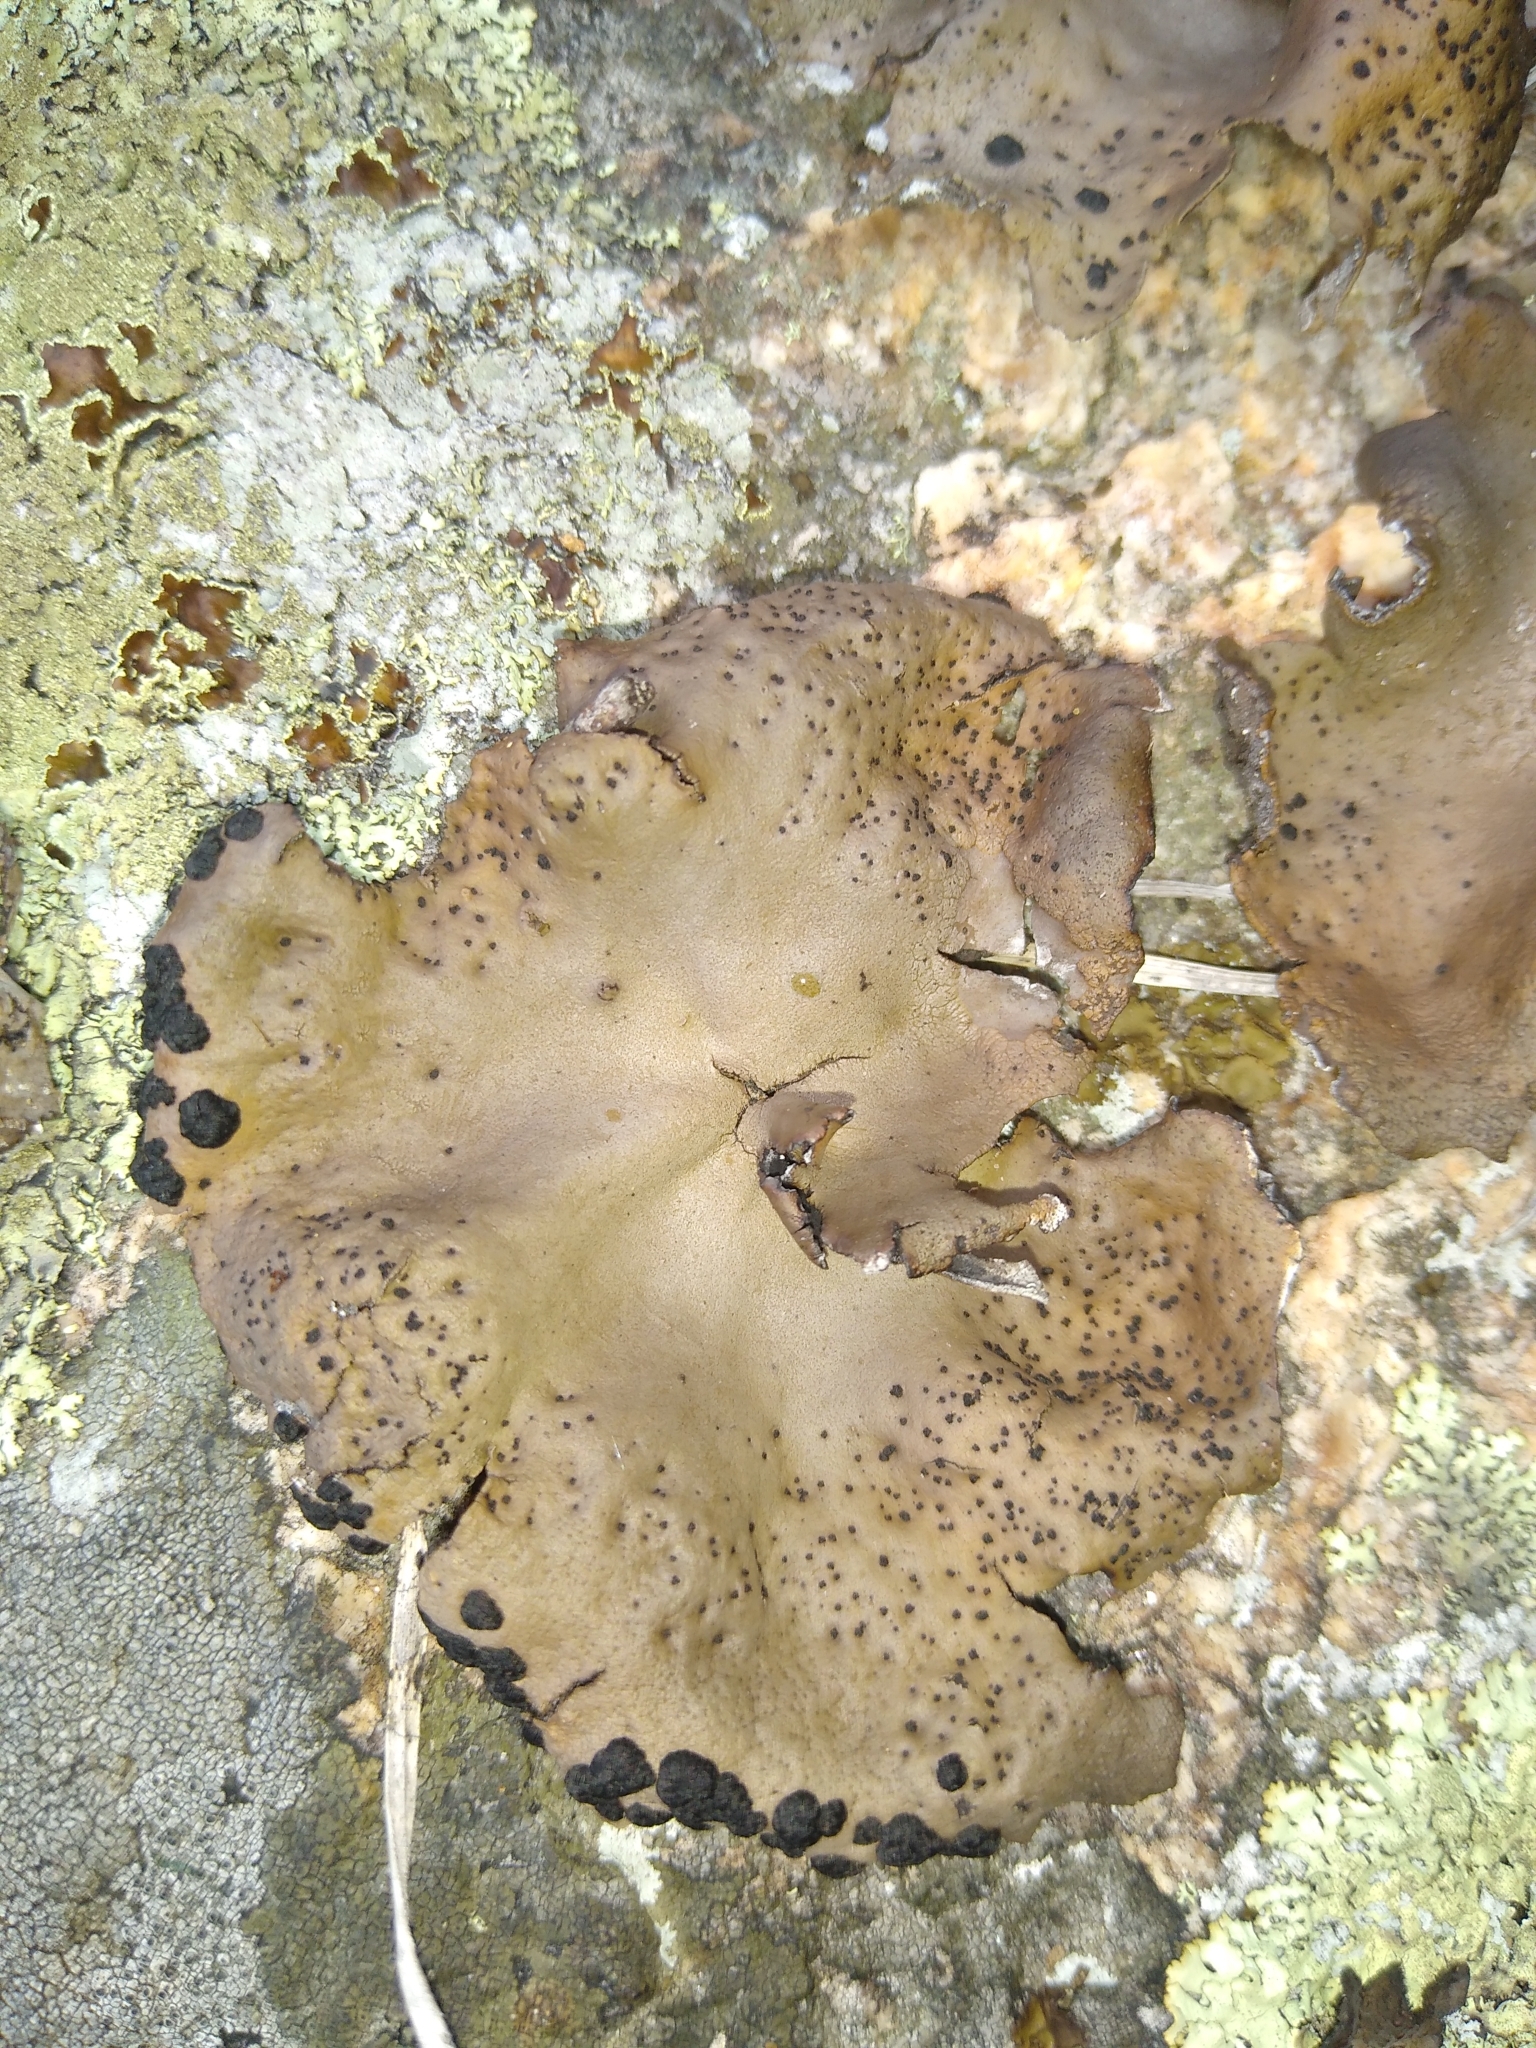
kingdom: Fungi
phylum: Ascomycota
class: Lecanoromycetes
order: Umbilicariales
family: Umbilicariaceae
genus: Umbilicaria
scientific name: Umbilicaria muhlenbergii
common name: Lesser rocktripe
